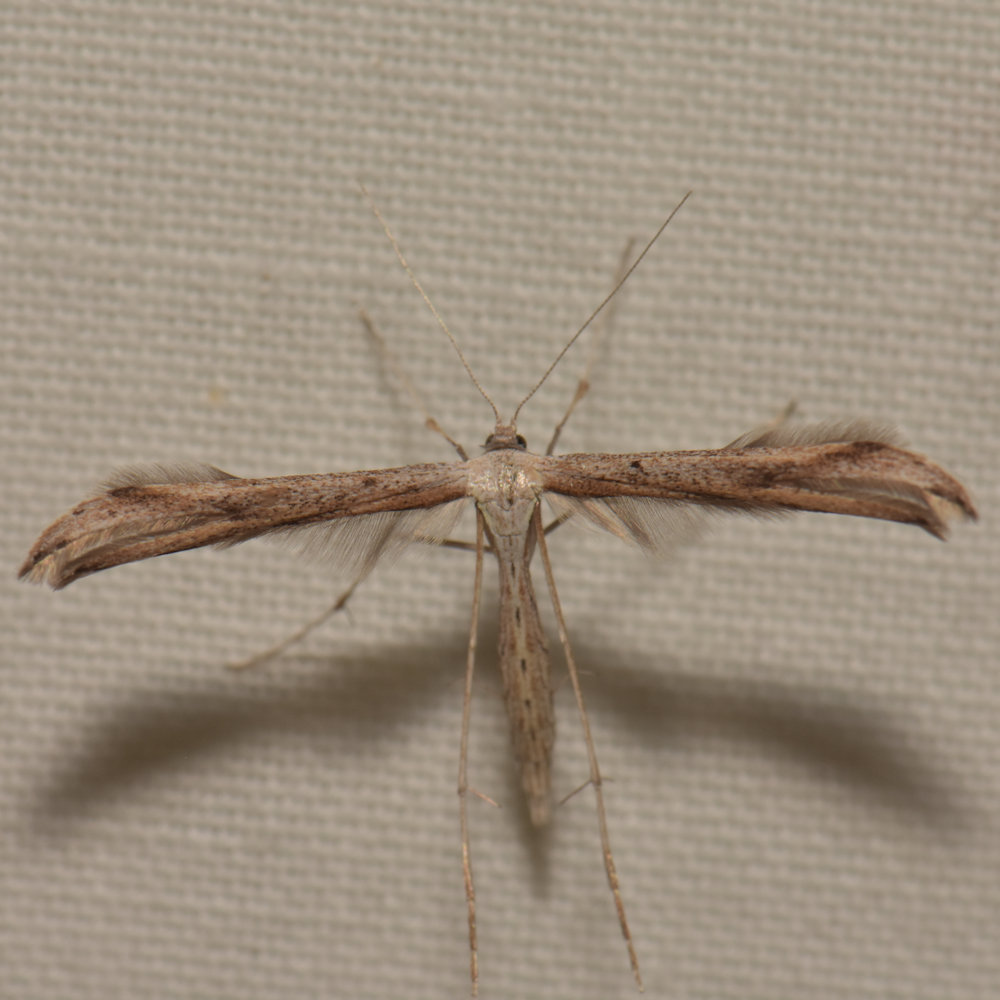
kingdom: Animalia
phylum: Arthropoda
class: Insecta
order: Lepidoptera
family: Pterophoridae
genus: Emmelina
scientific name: Emmelina monodactyla
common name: Common plume
